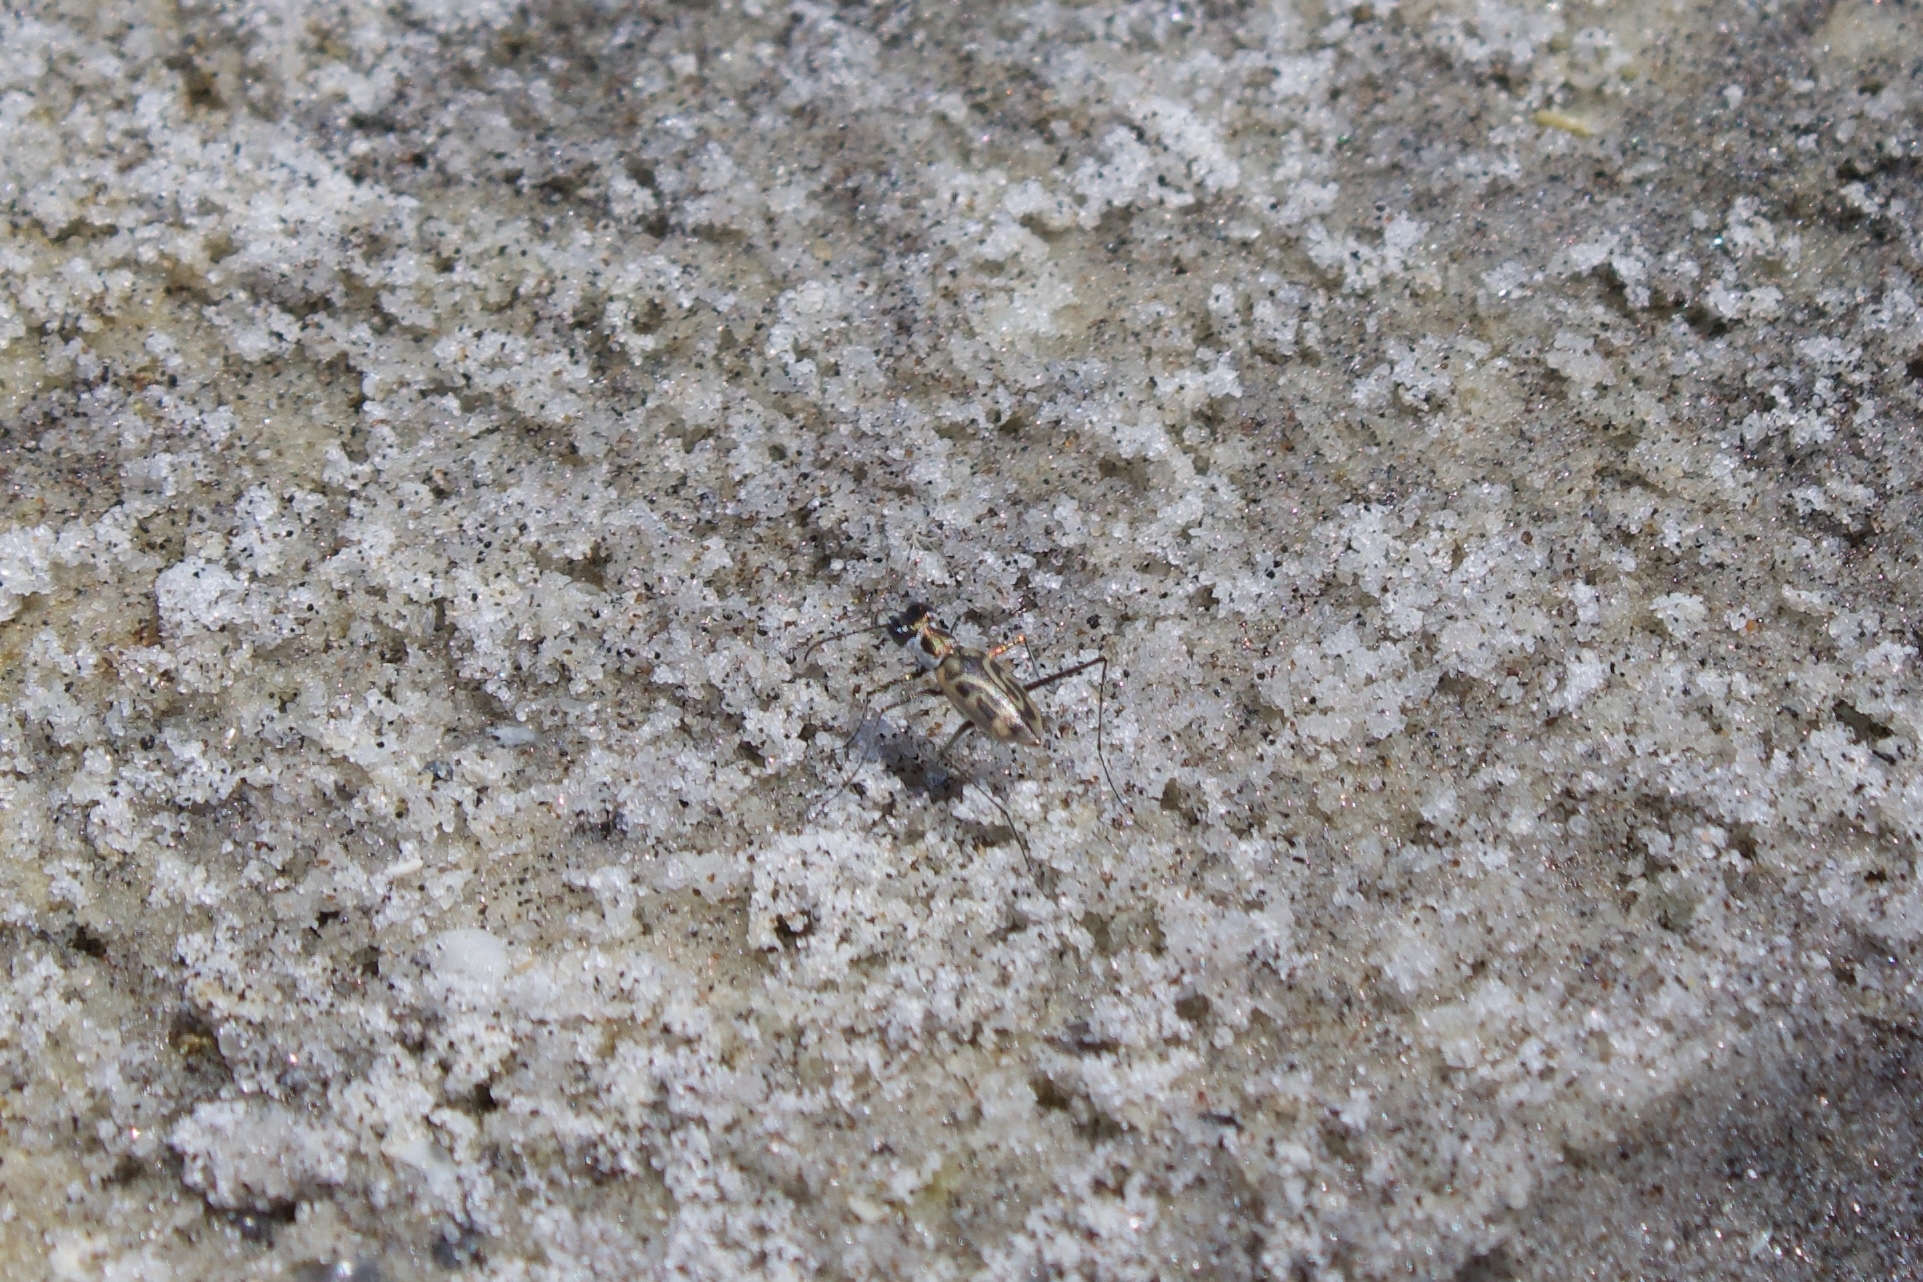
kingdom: Animalia
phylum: Arthropoda
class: Insecta
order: Coleoptera
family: Carabidae
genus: Habroscelimorpha
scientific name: Habroscelimorpha dorsalis
